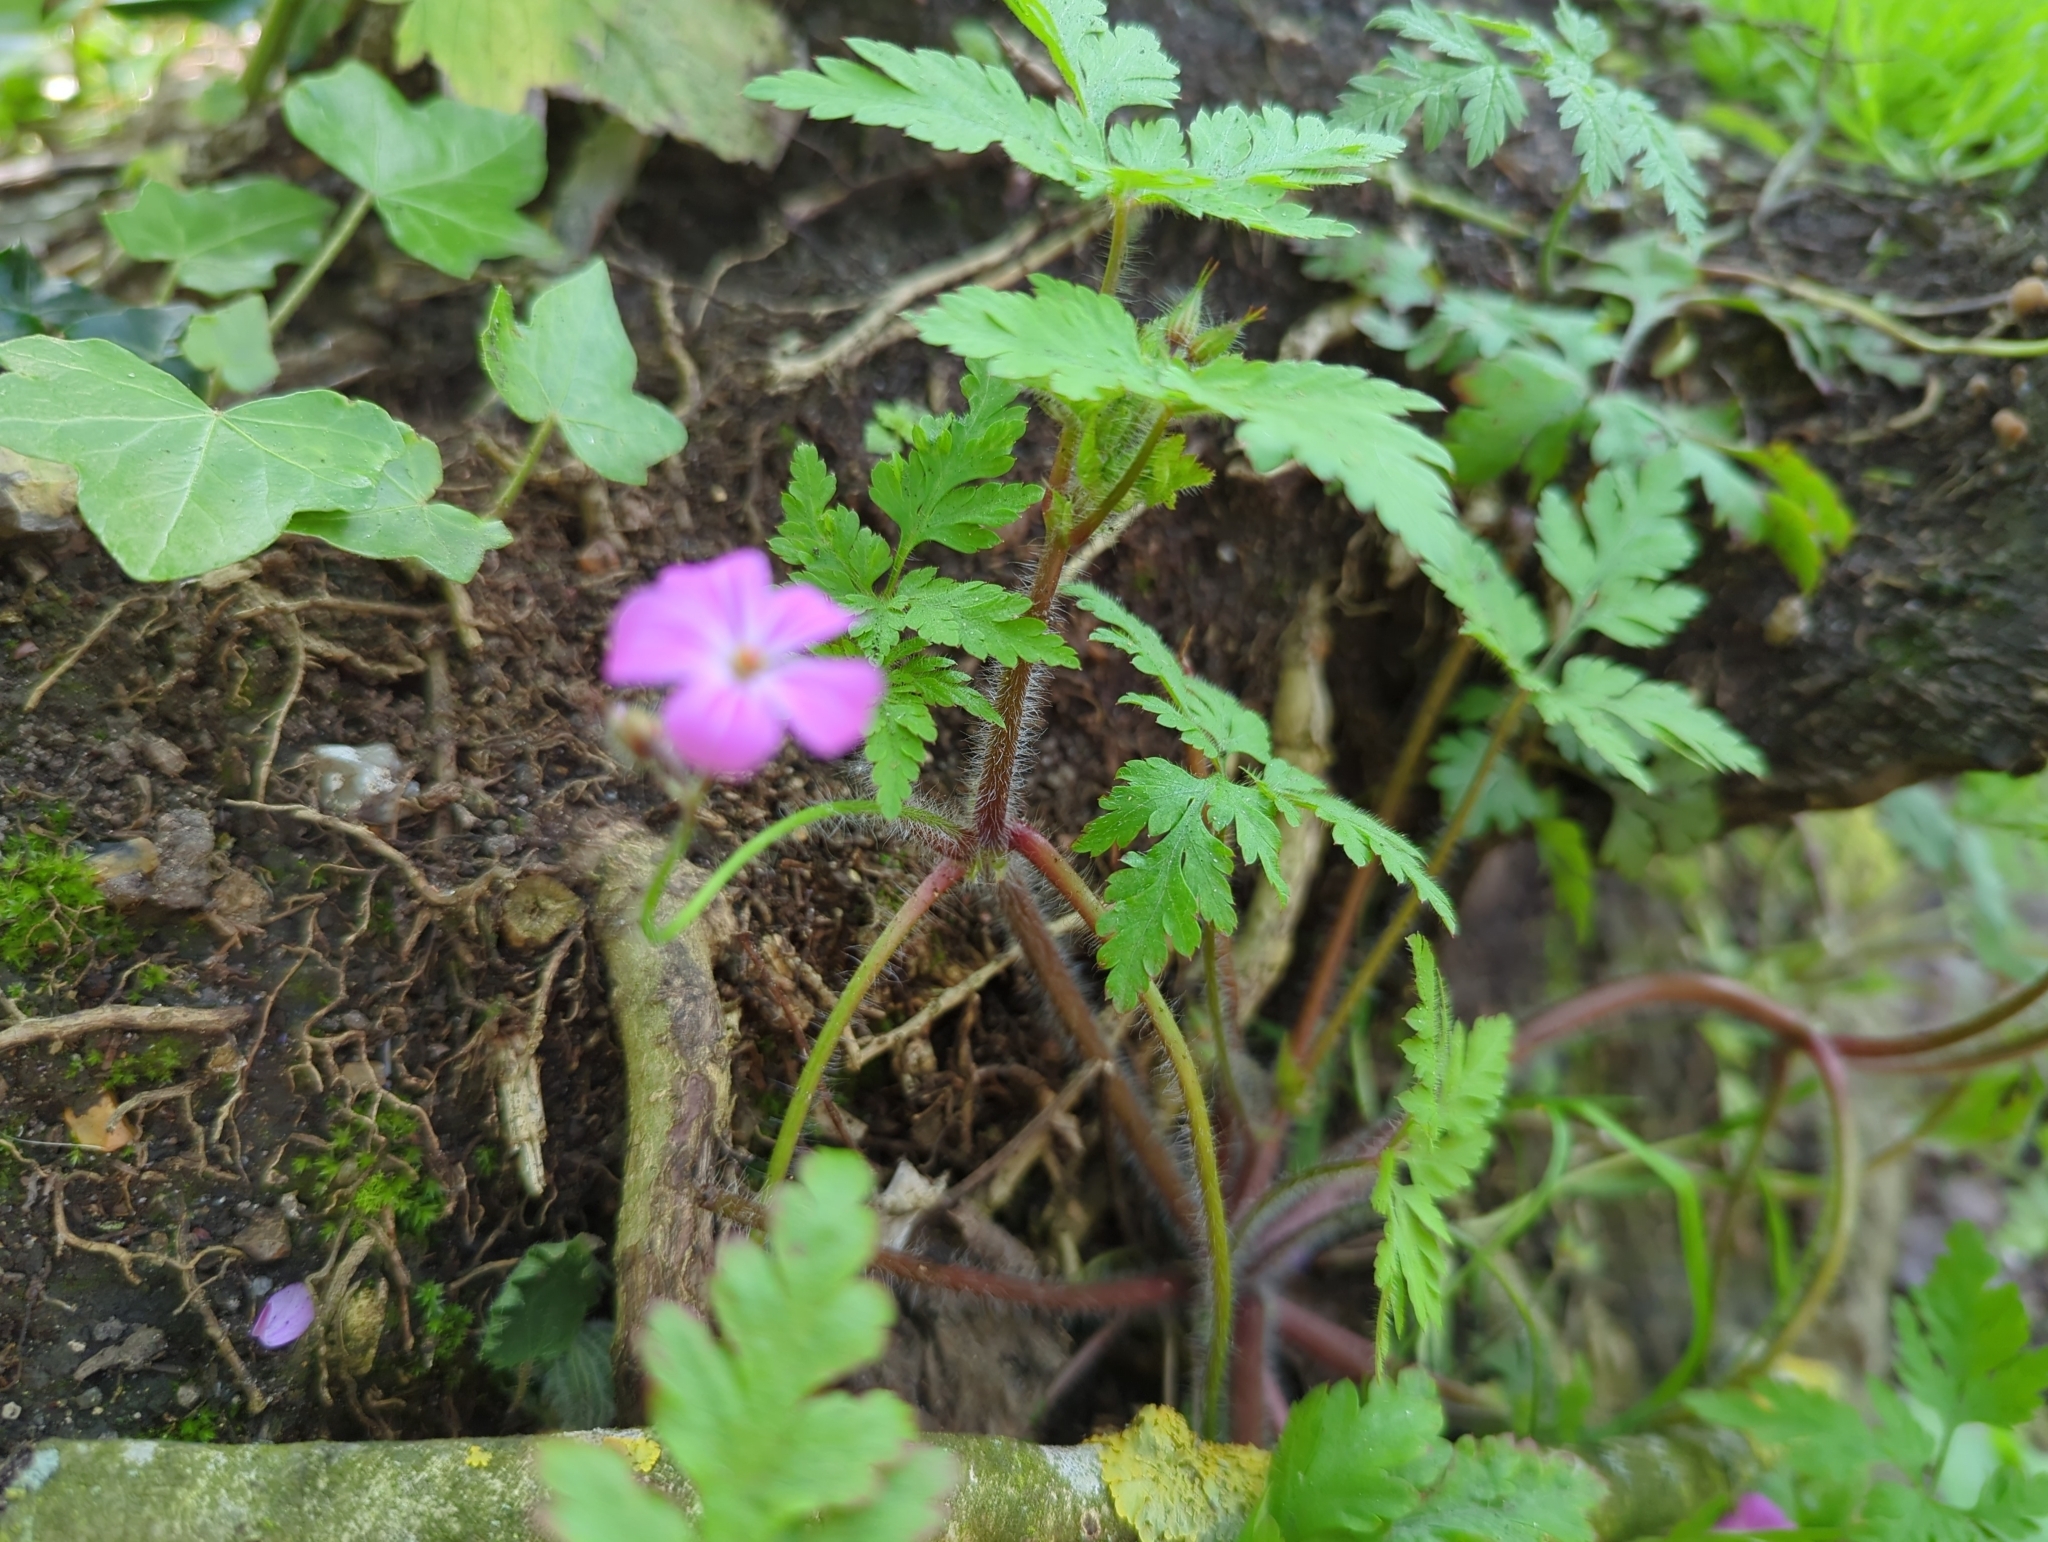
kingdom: Plantae
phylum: Tracheophyta
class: Magnoliopsida
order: Geraniales
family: Geraniaceae
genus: Geranium
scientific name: Geranium robertianum
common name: Herb-robert
